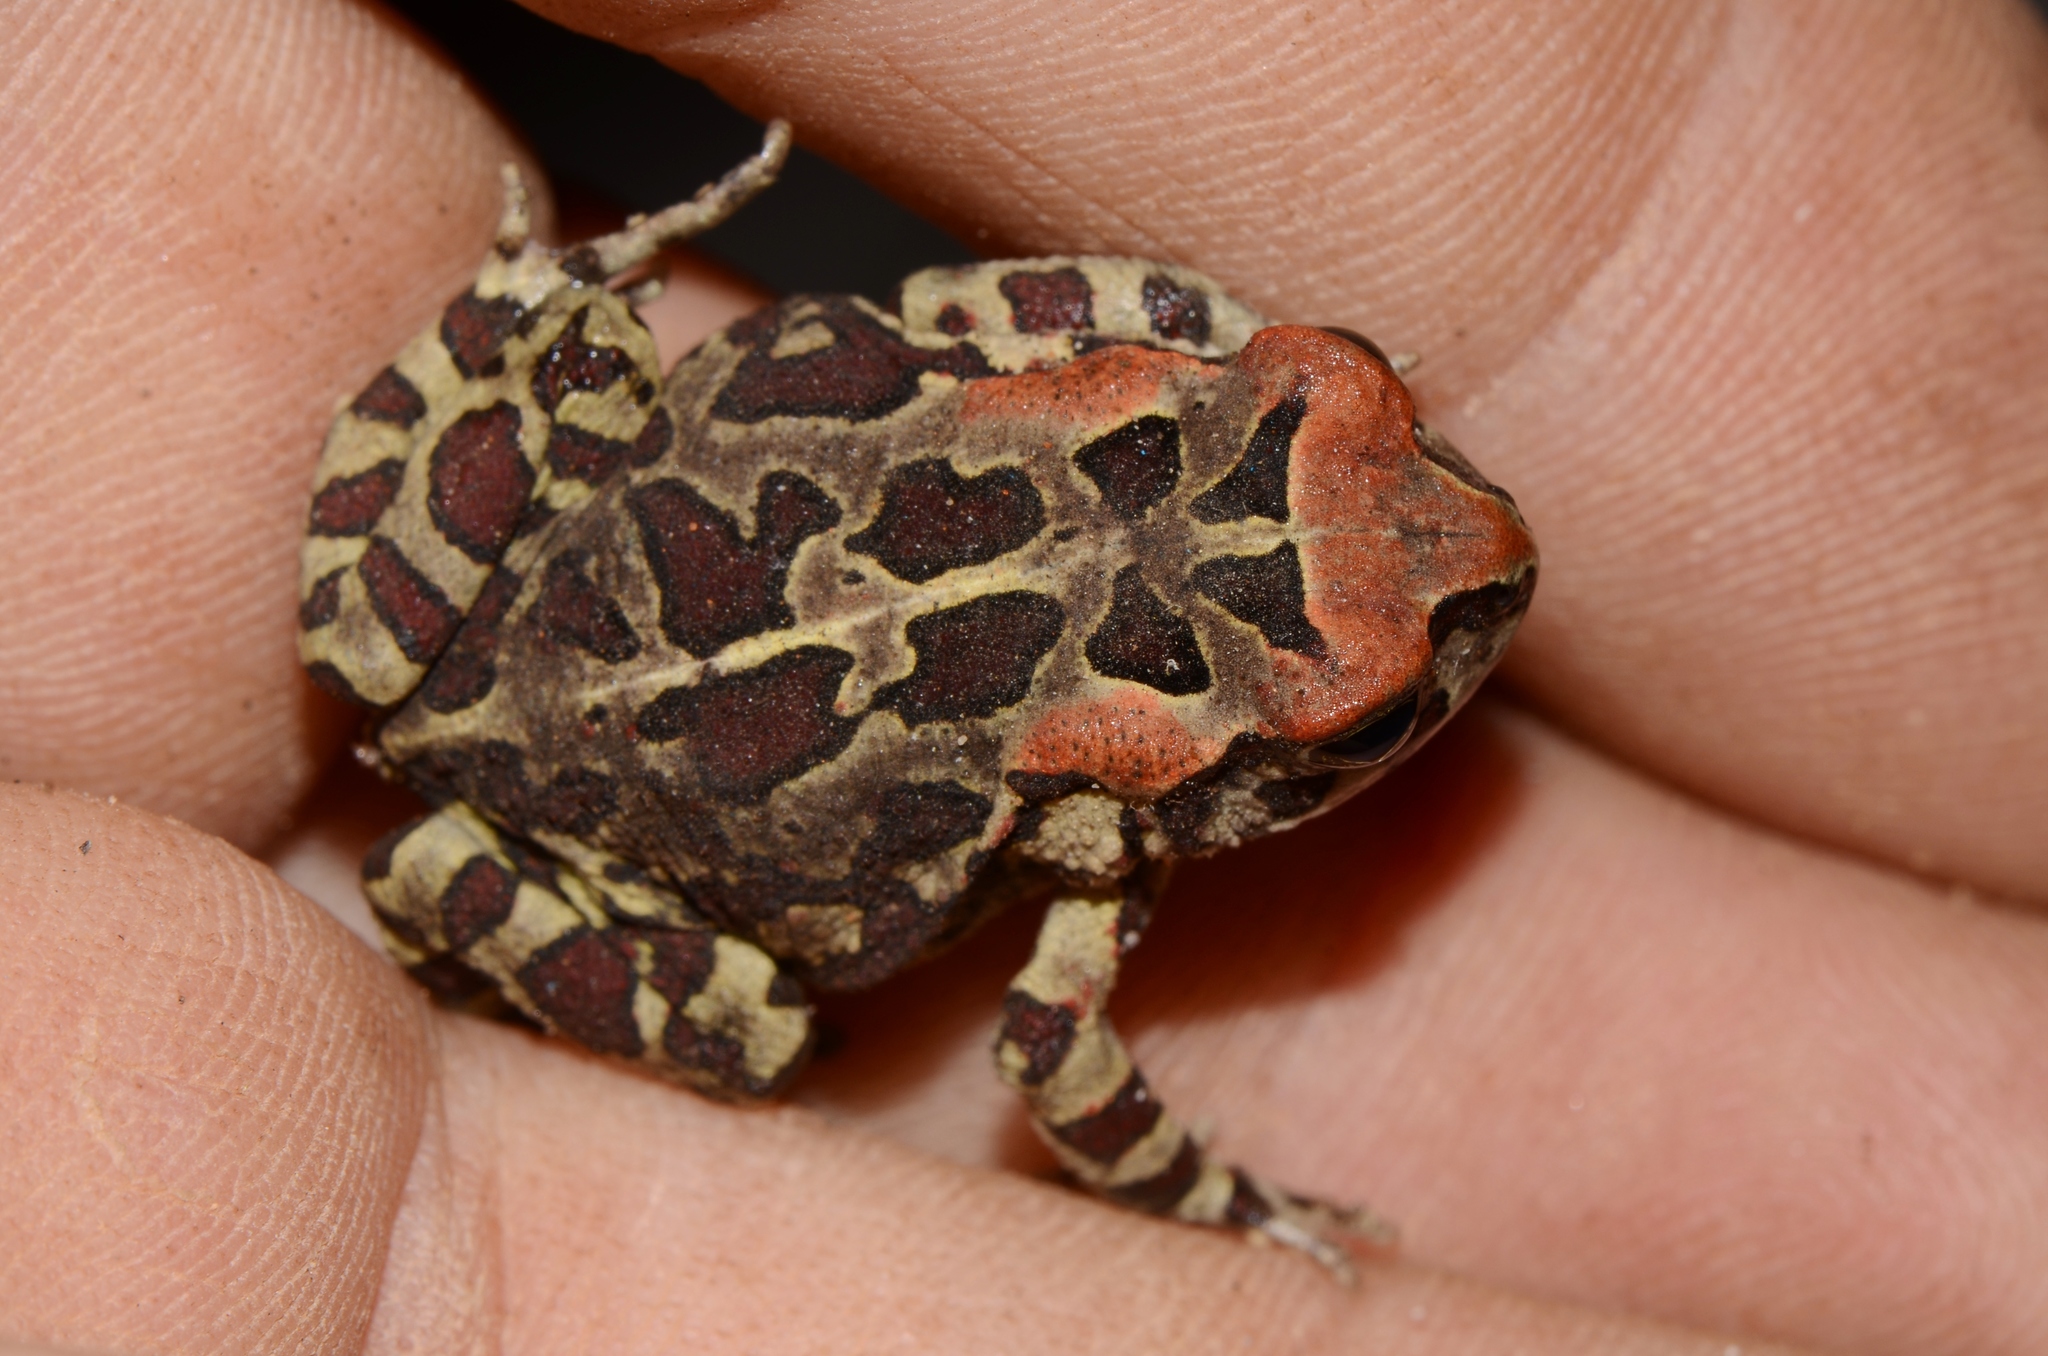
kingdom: Animalia
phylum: Chordata
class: Amphibia
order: Anura
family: Bufonidae
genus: Sclerophrys
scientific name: Sclerophrys pantherina
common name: Panther toad
